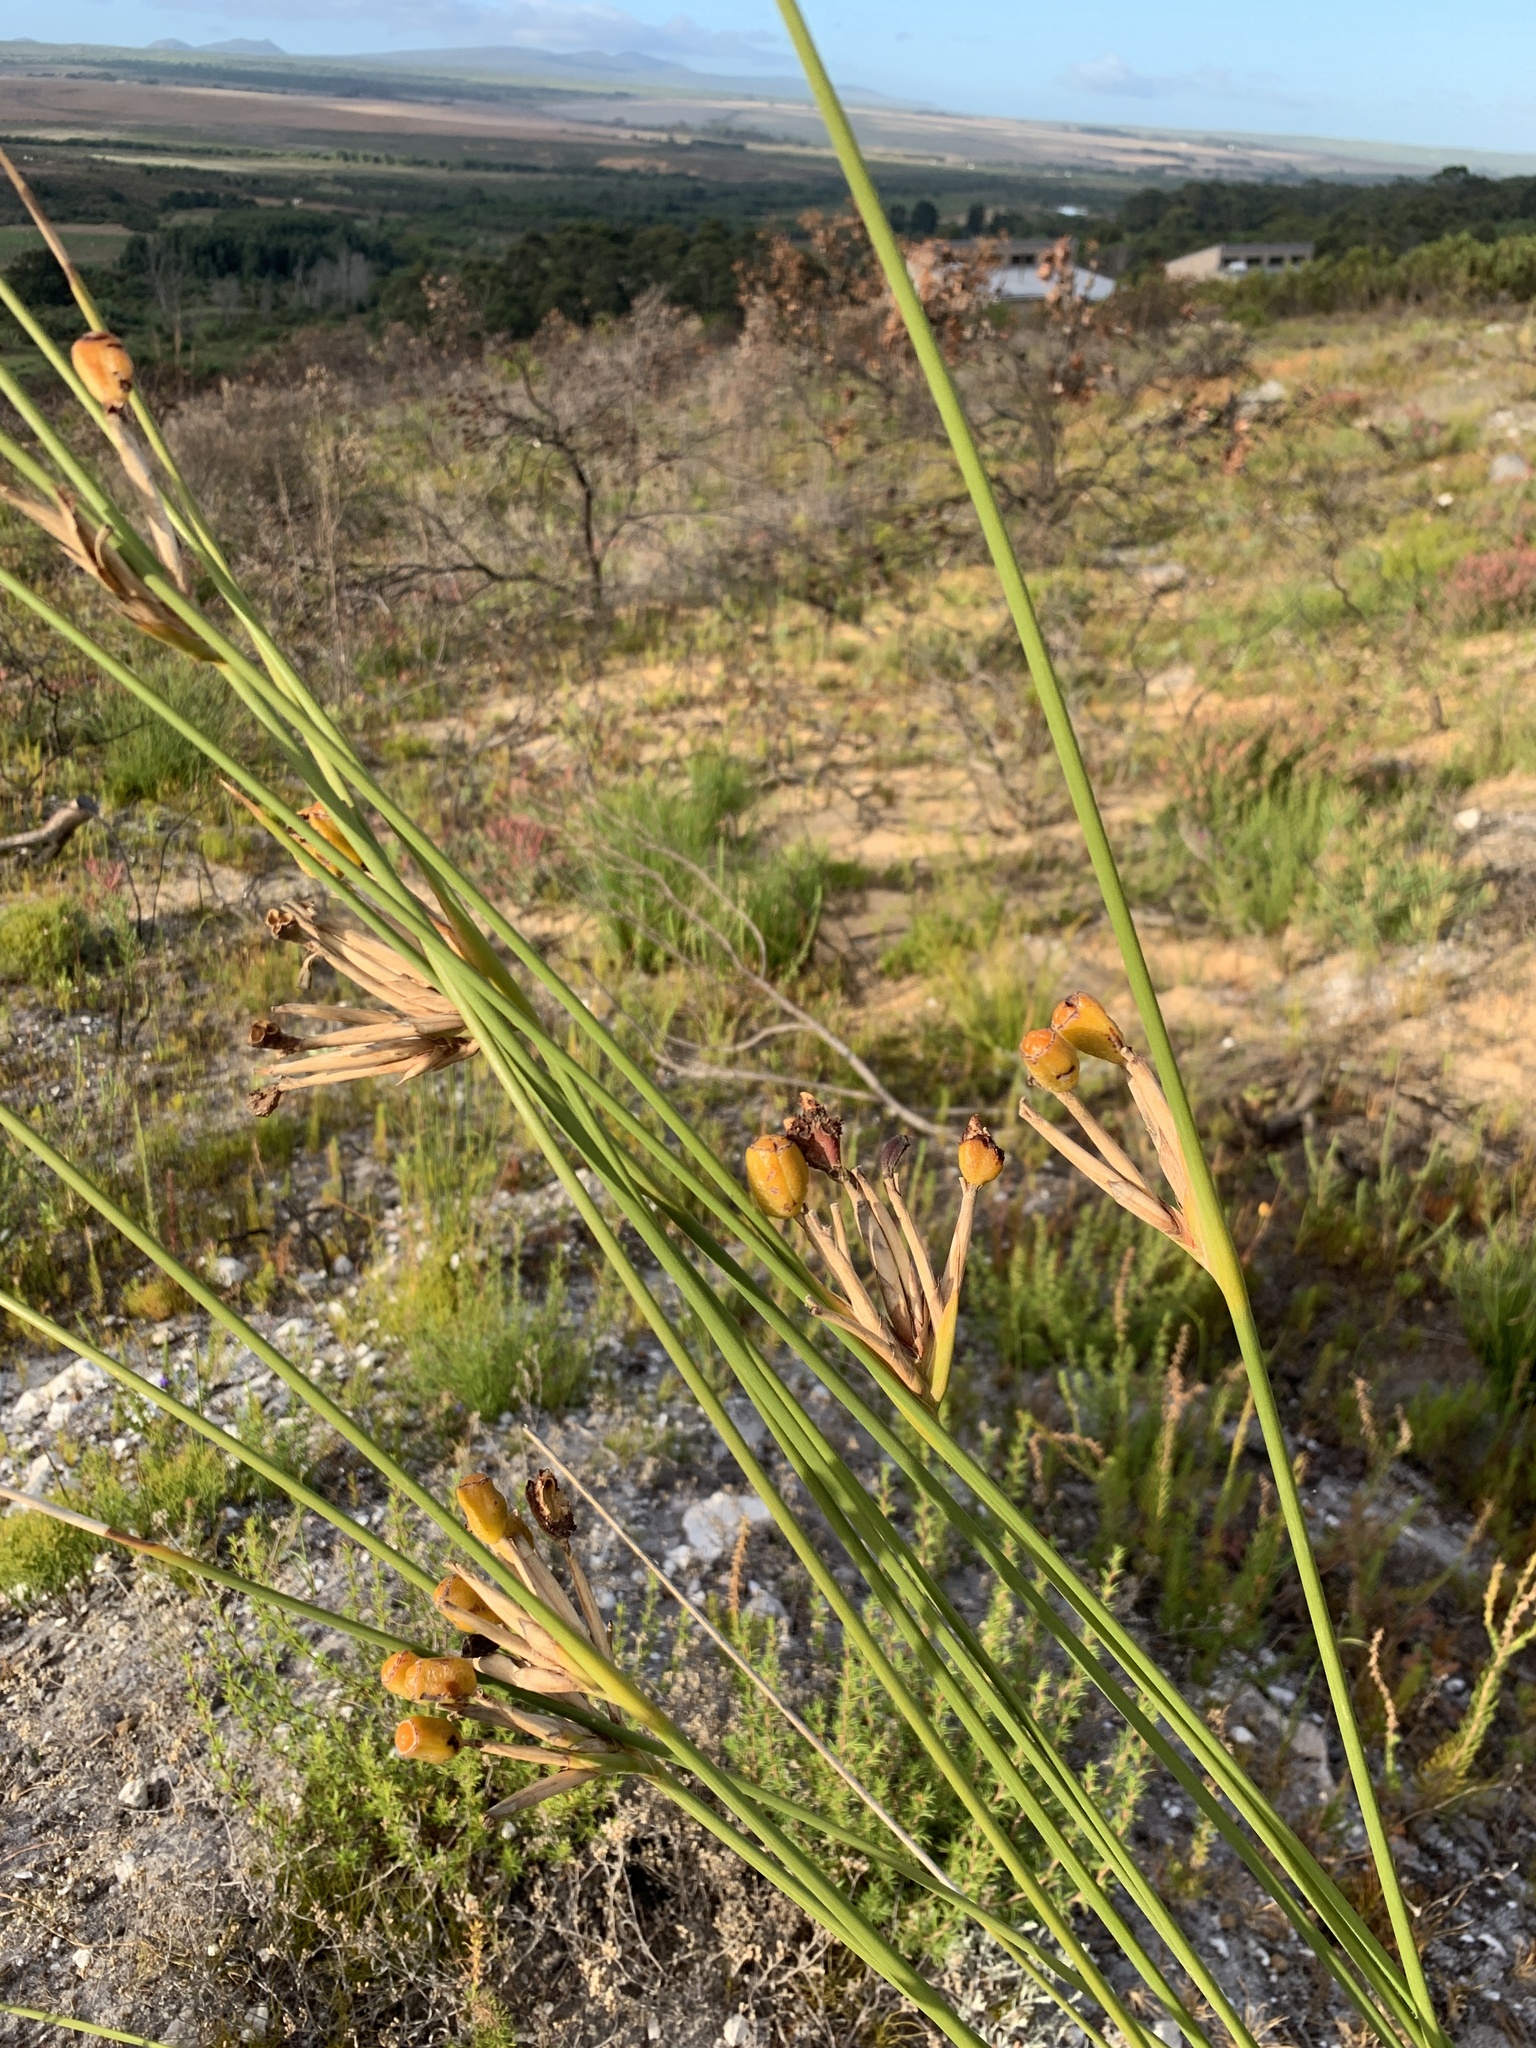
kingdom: Plantae
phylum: Tracheophyta
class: Liliopsida
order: Asparagales
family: Iridaceae
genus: Bobartia
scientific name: Bobartia longicyma
